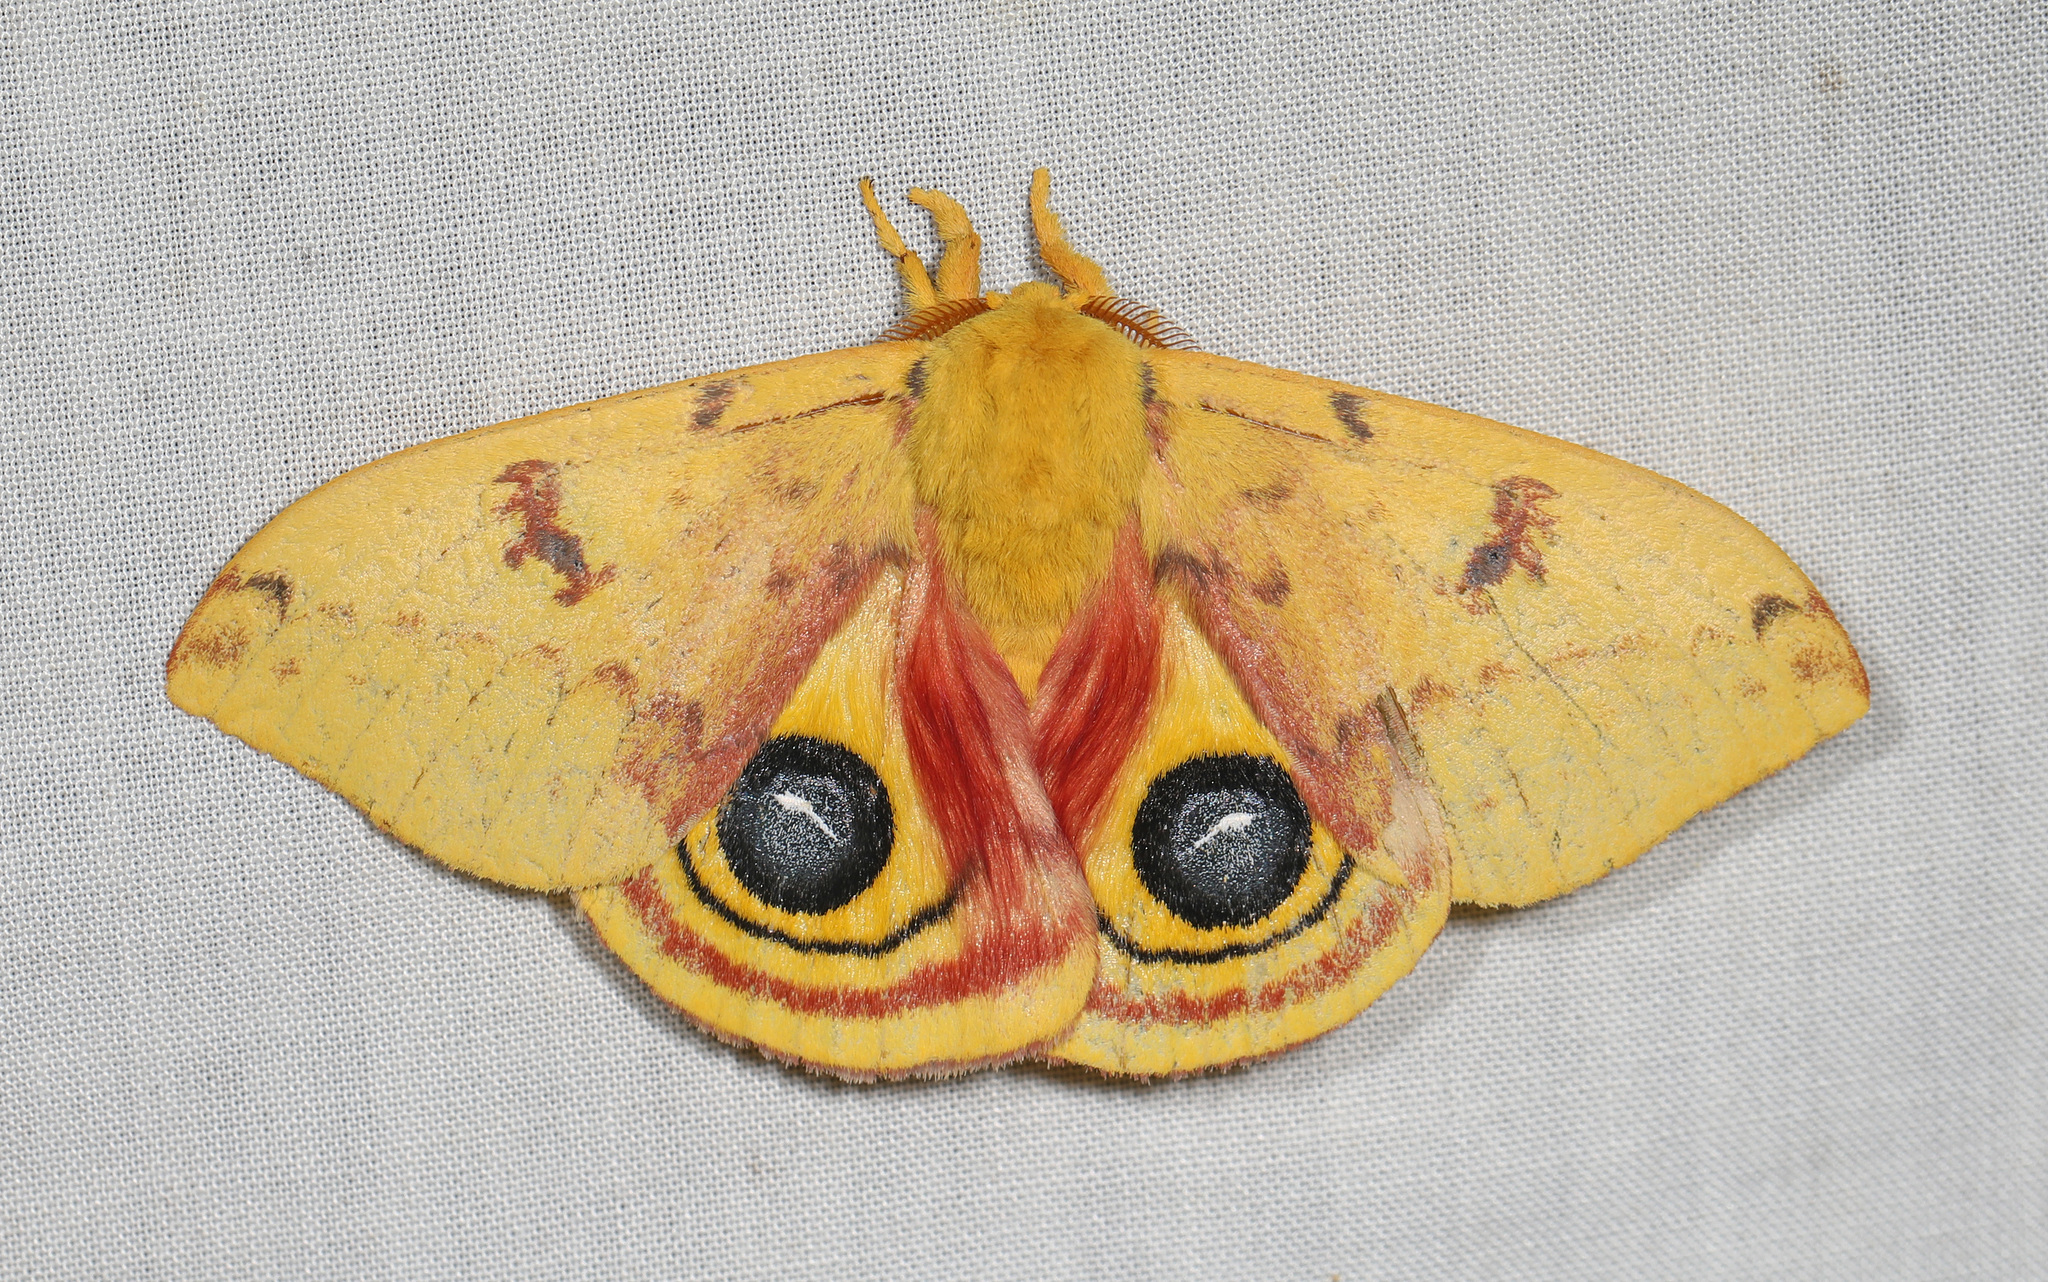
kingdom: Animalia
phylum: Arthropoda
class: Insecta
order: Lepidoptera
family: Saturniidae
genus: Automeris
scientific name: Automeris io
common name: Io moth
